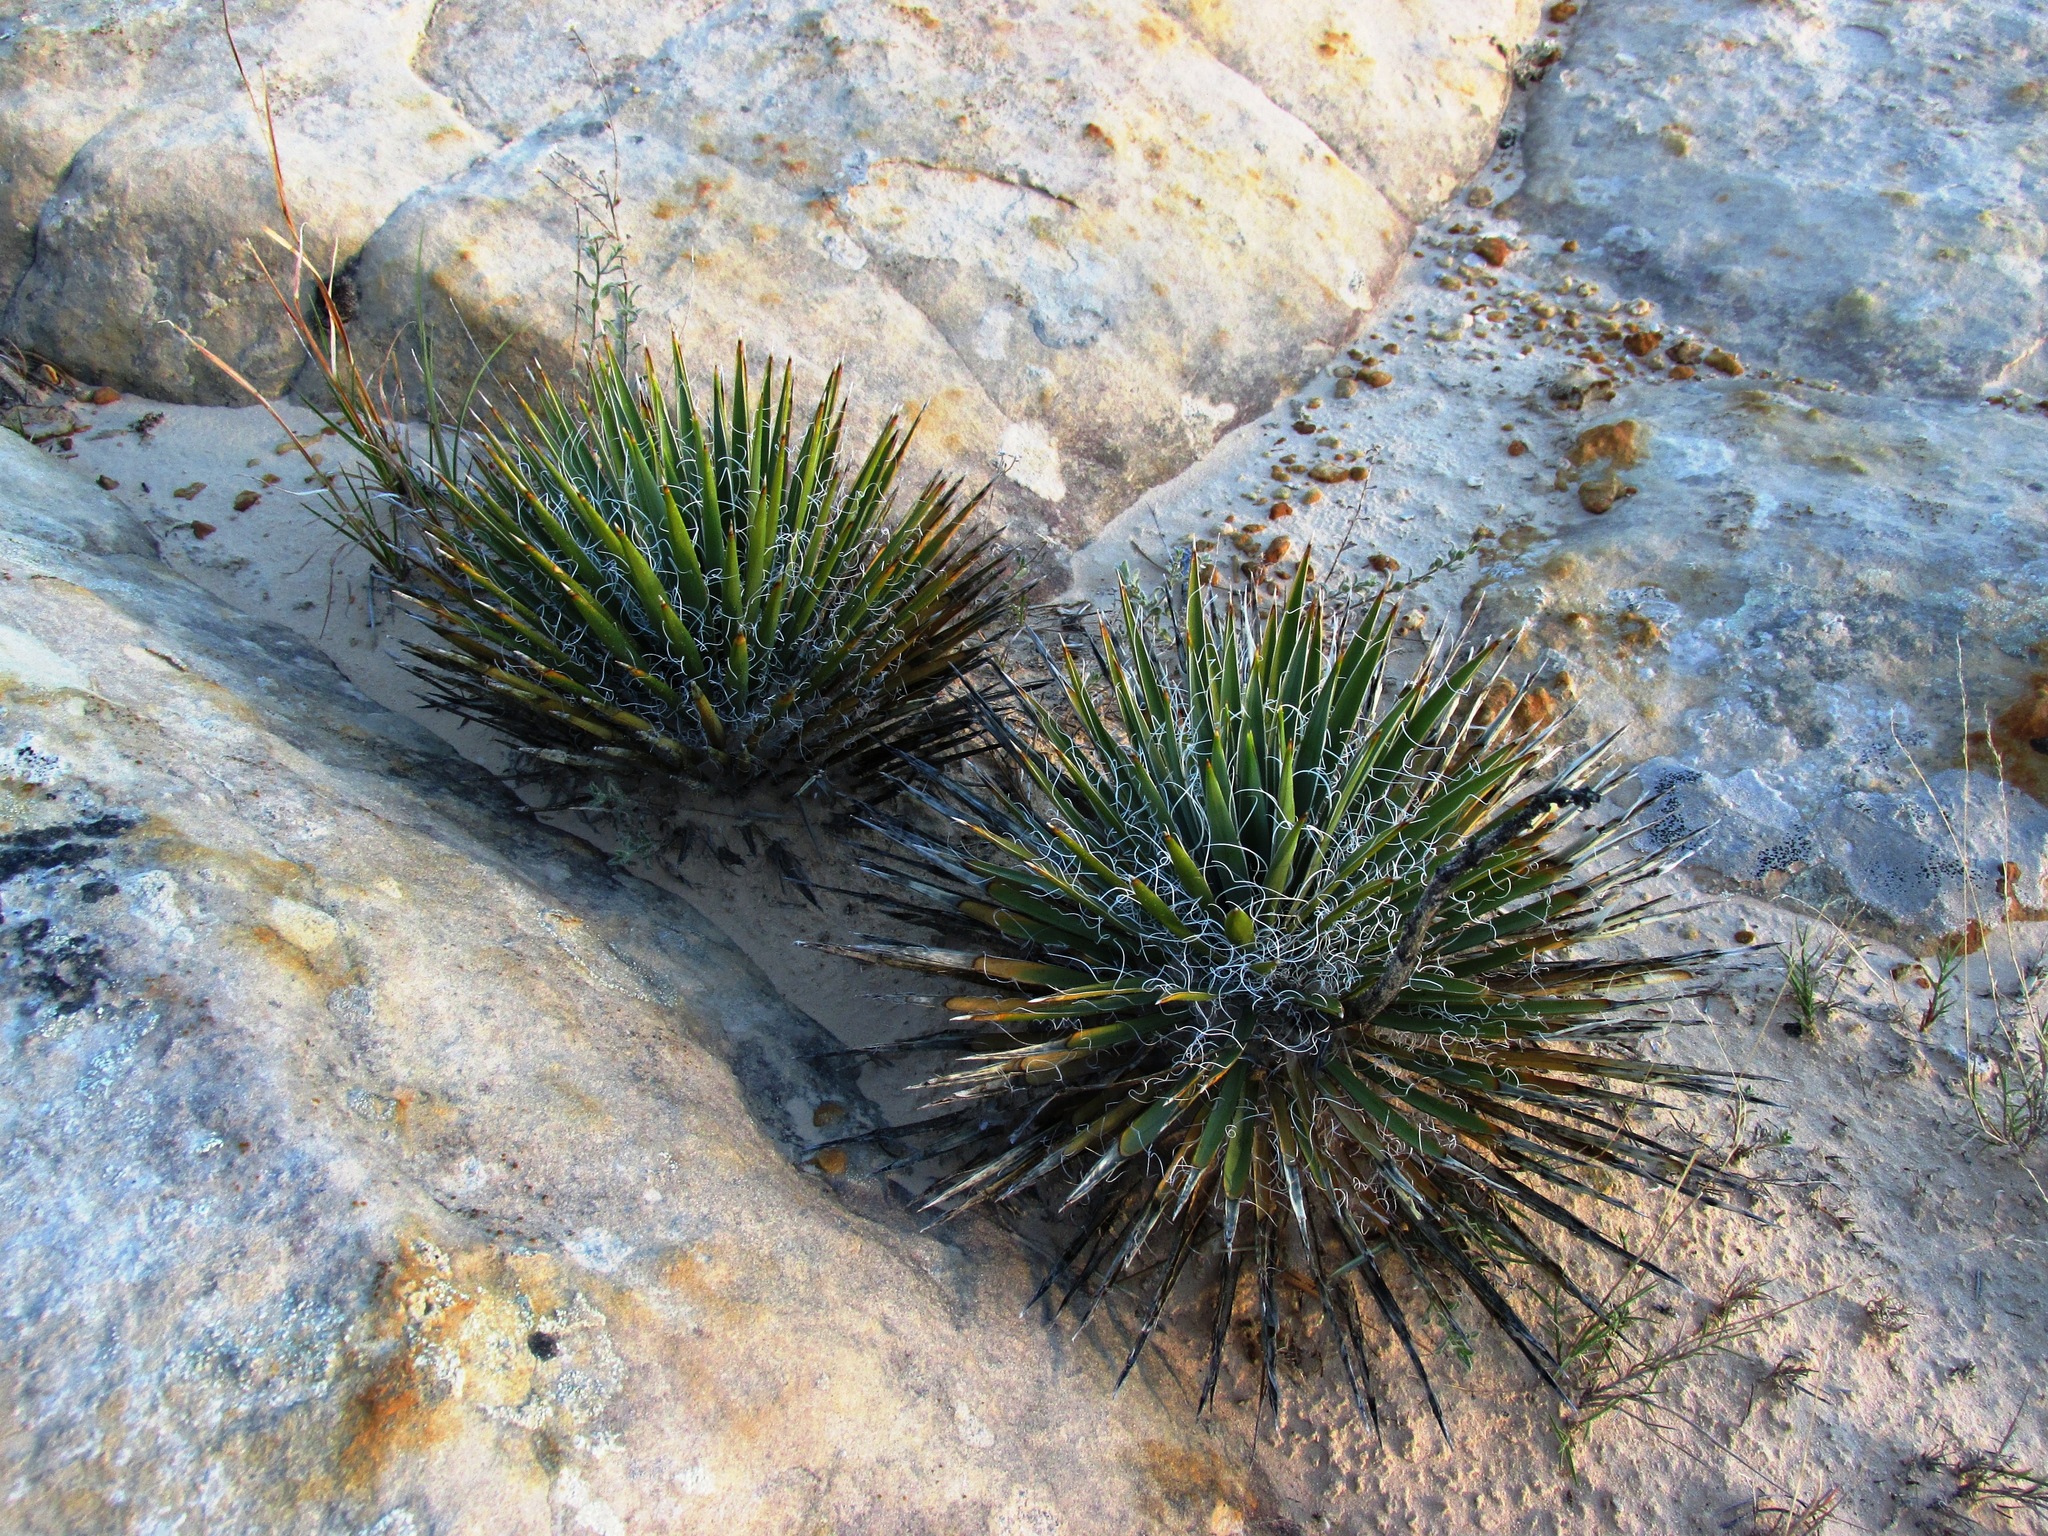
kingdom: Plantae
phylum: Tracheophyta
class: Liliopsida
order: Asparagales
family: Asparagaceae
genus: Yucca
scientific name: Yucca harrimaniae
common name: Harriman's yucca
